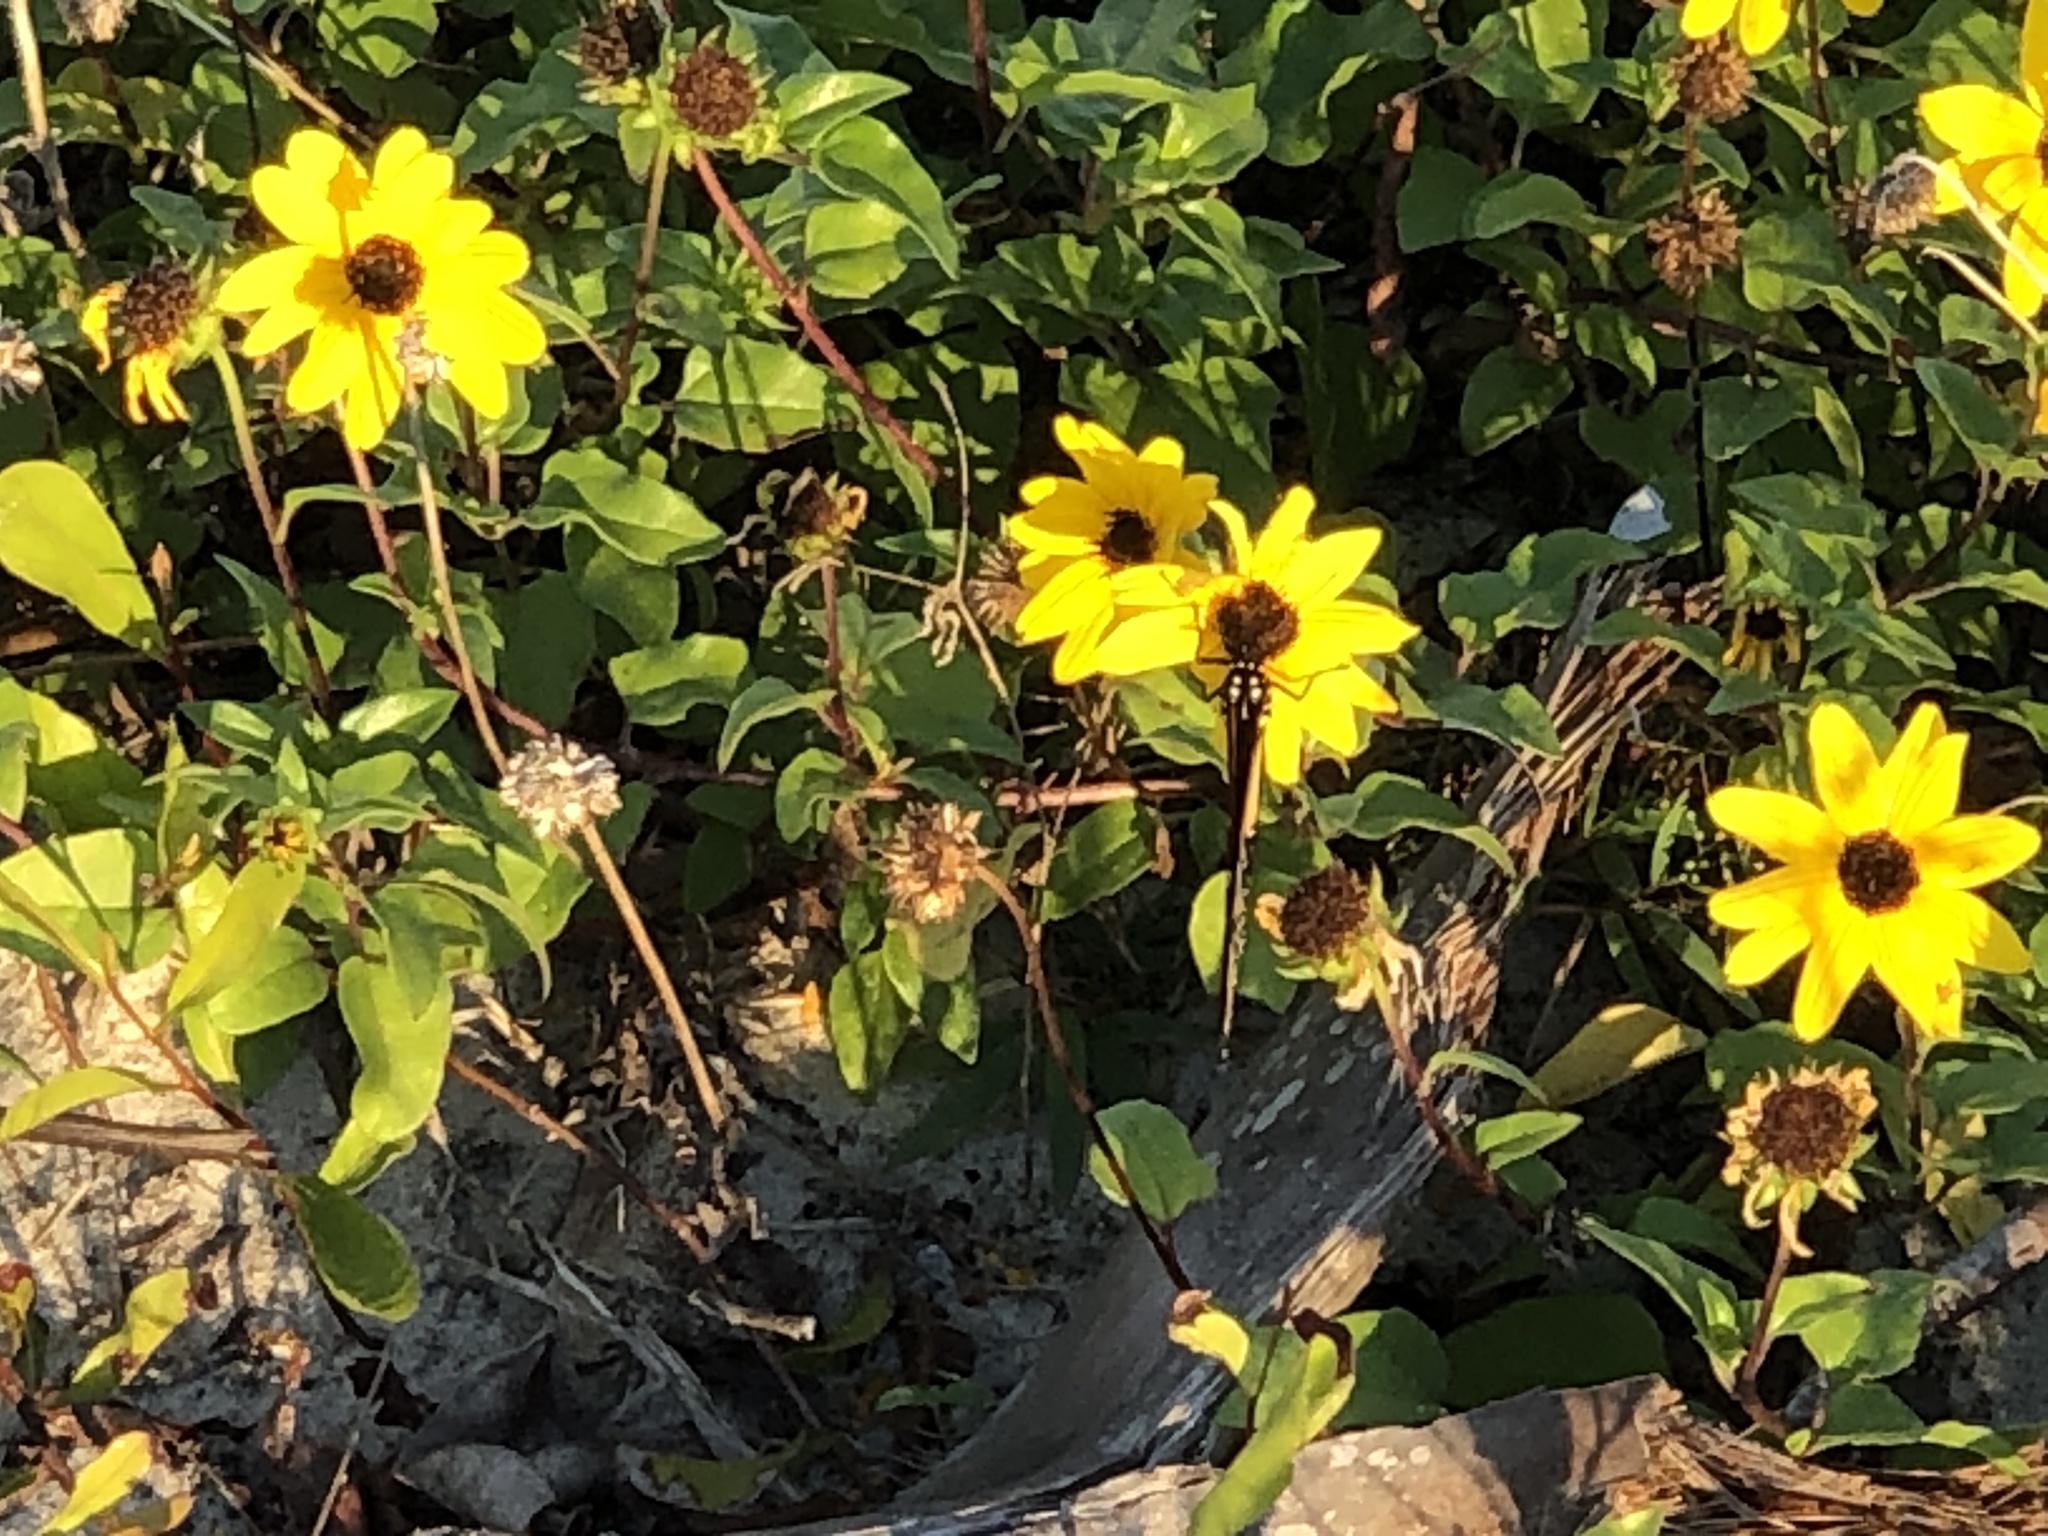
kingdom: Plantae
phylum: Tracheophyta
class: Magnoliopsida
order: Asterales
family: Asteraceae
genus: Helianthus
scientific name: Helianthus debilis
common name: Weak sunflower
